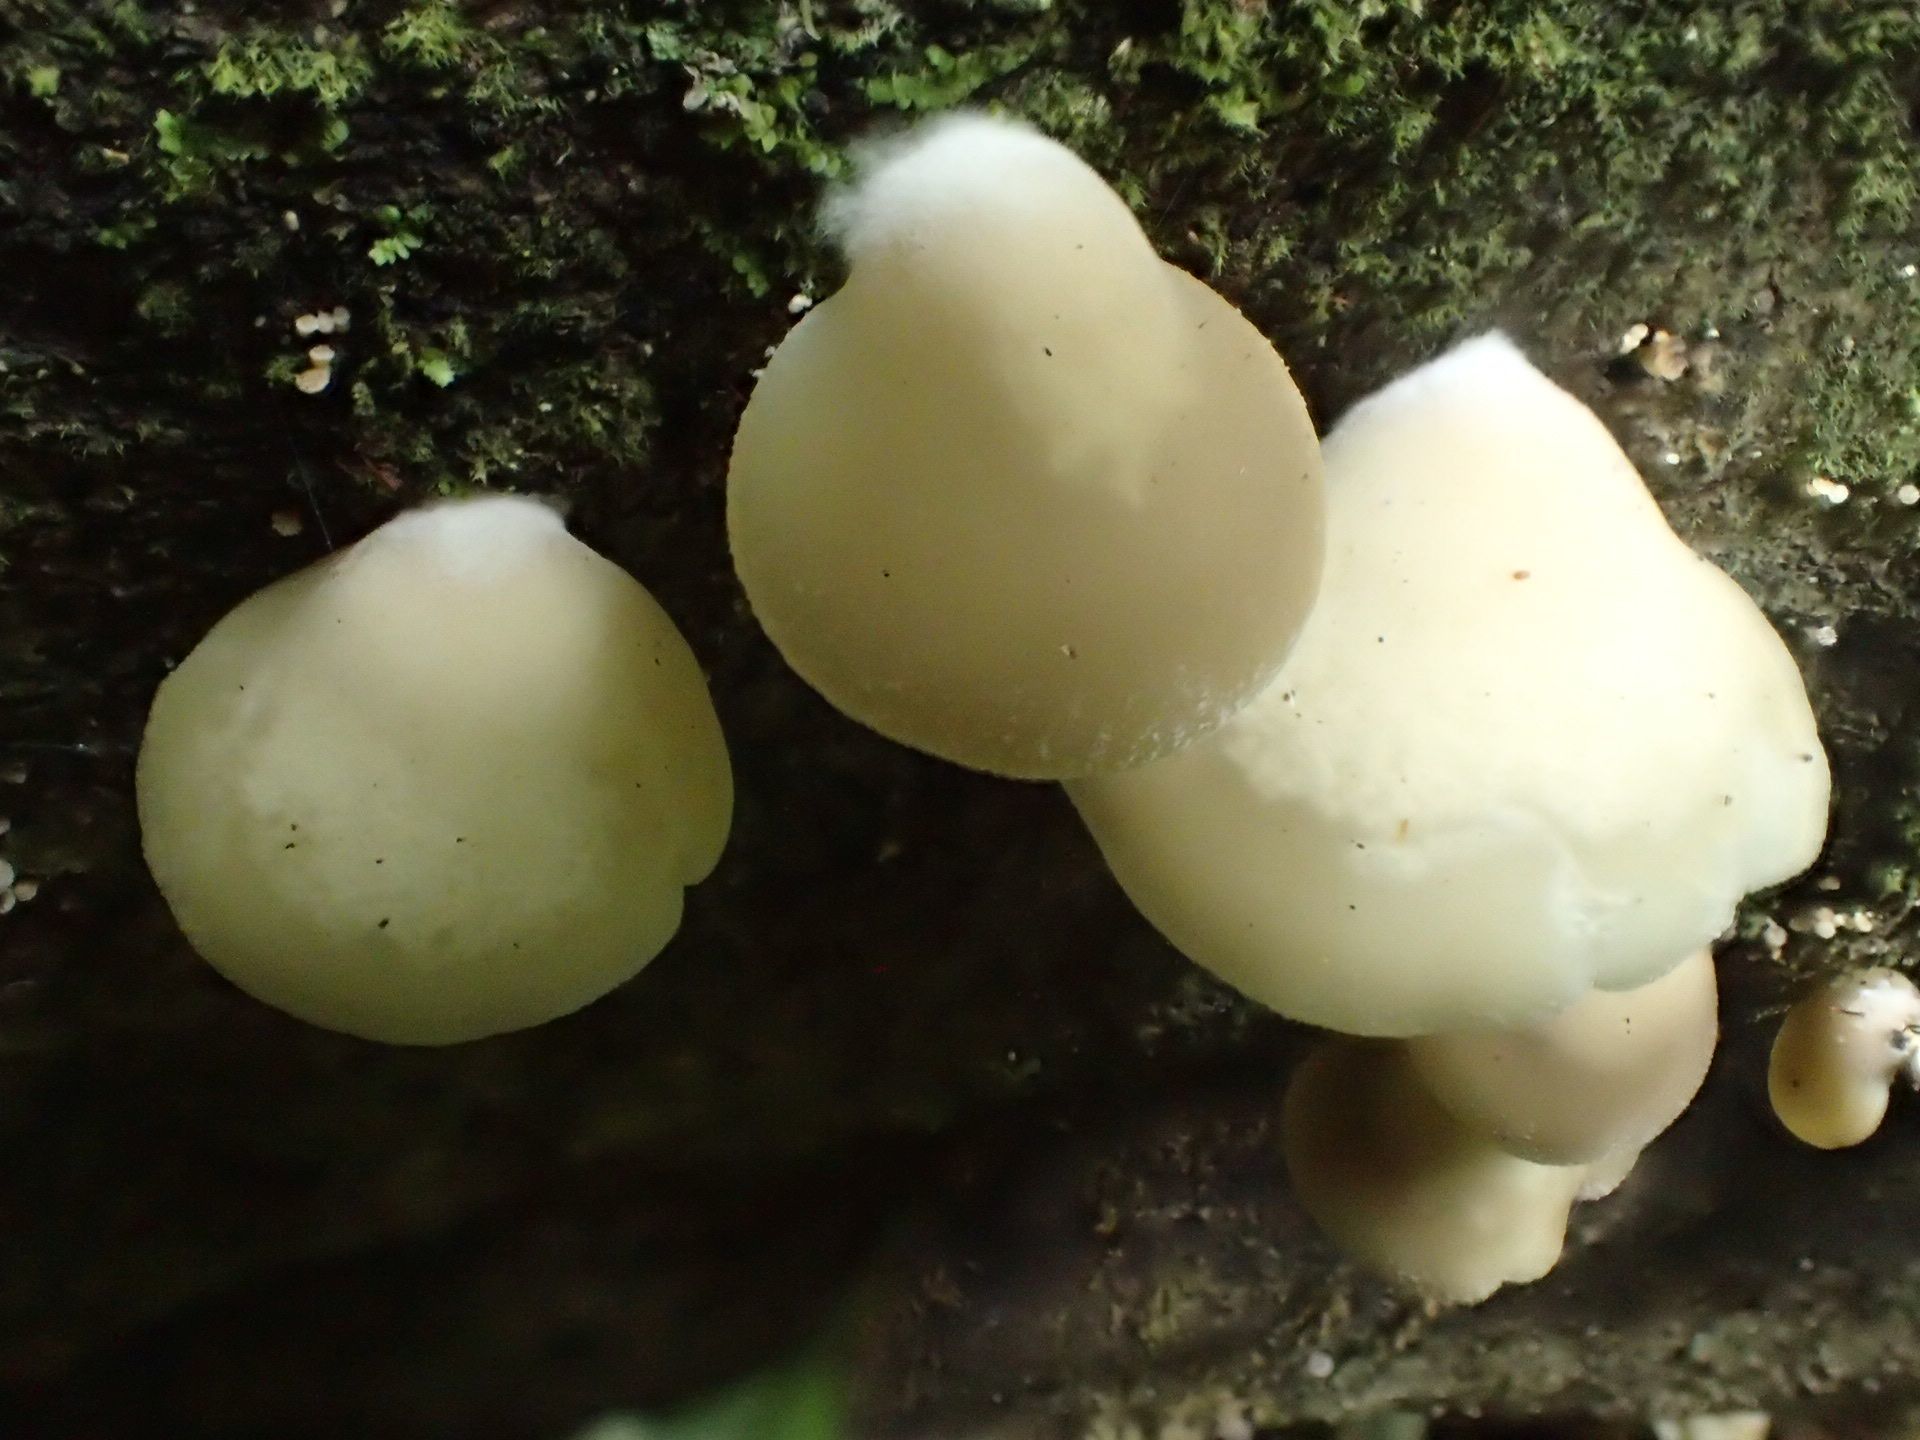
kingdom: Fungi
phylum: Basidiomycota
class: Agaricomycetes
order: Agaricales
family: Tricholomataceae
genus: Conchomyces
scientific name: Conchomyces bursiformis
